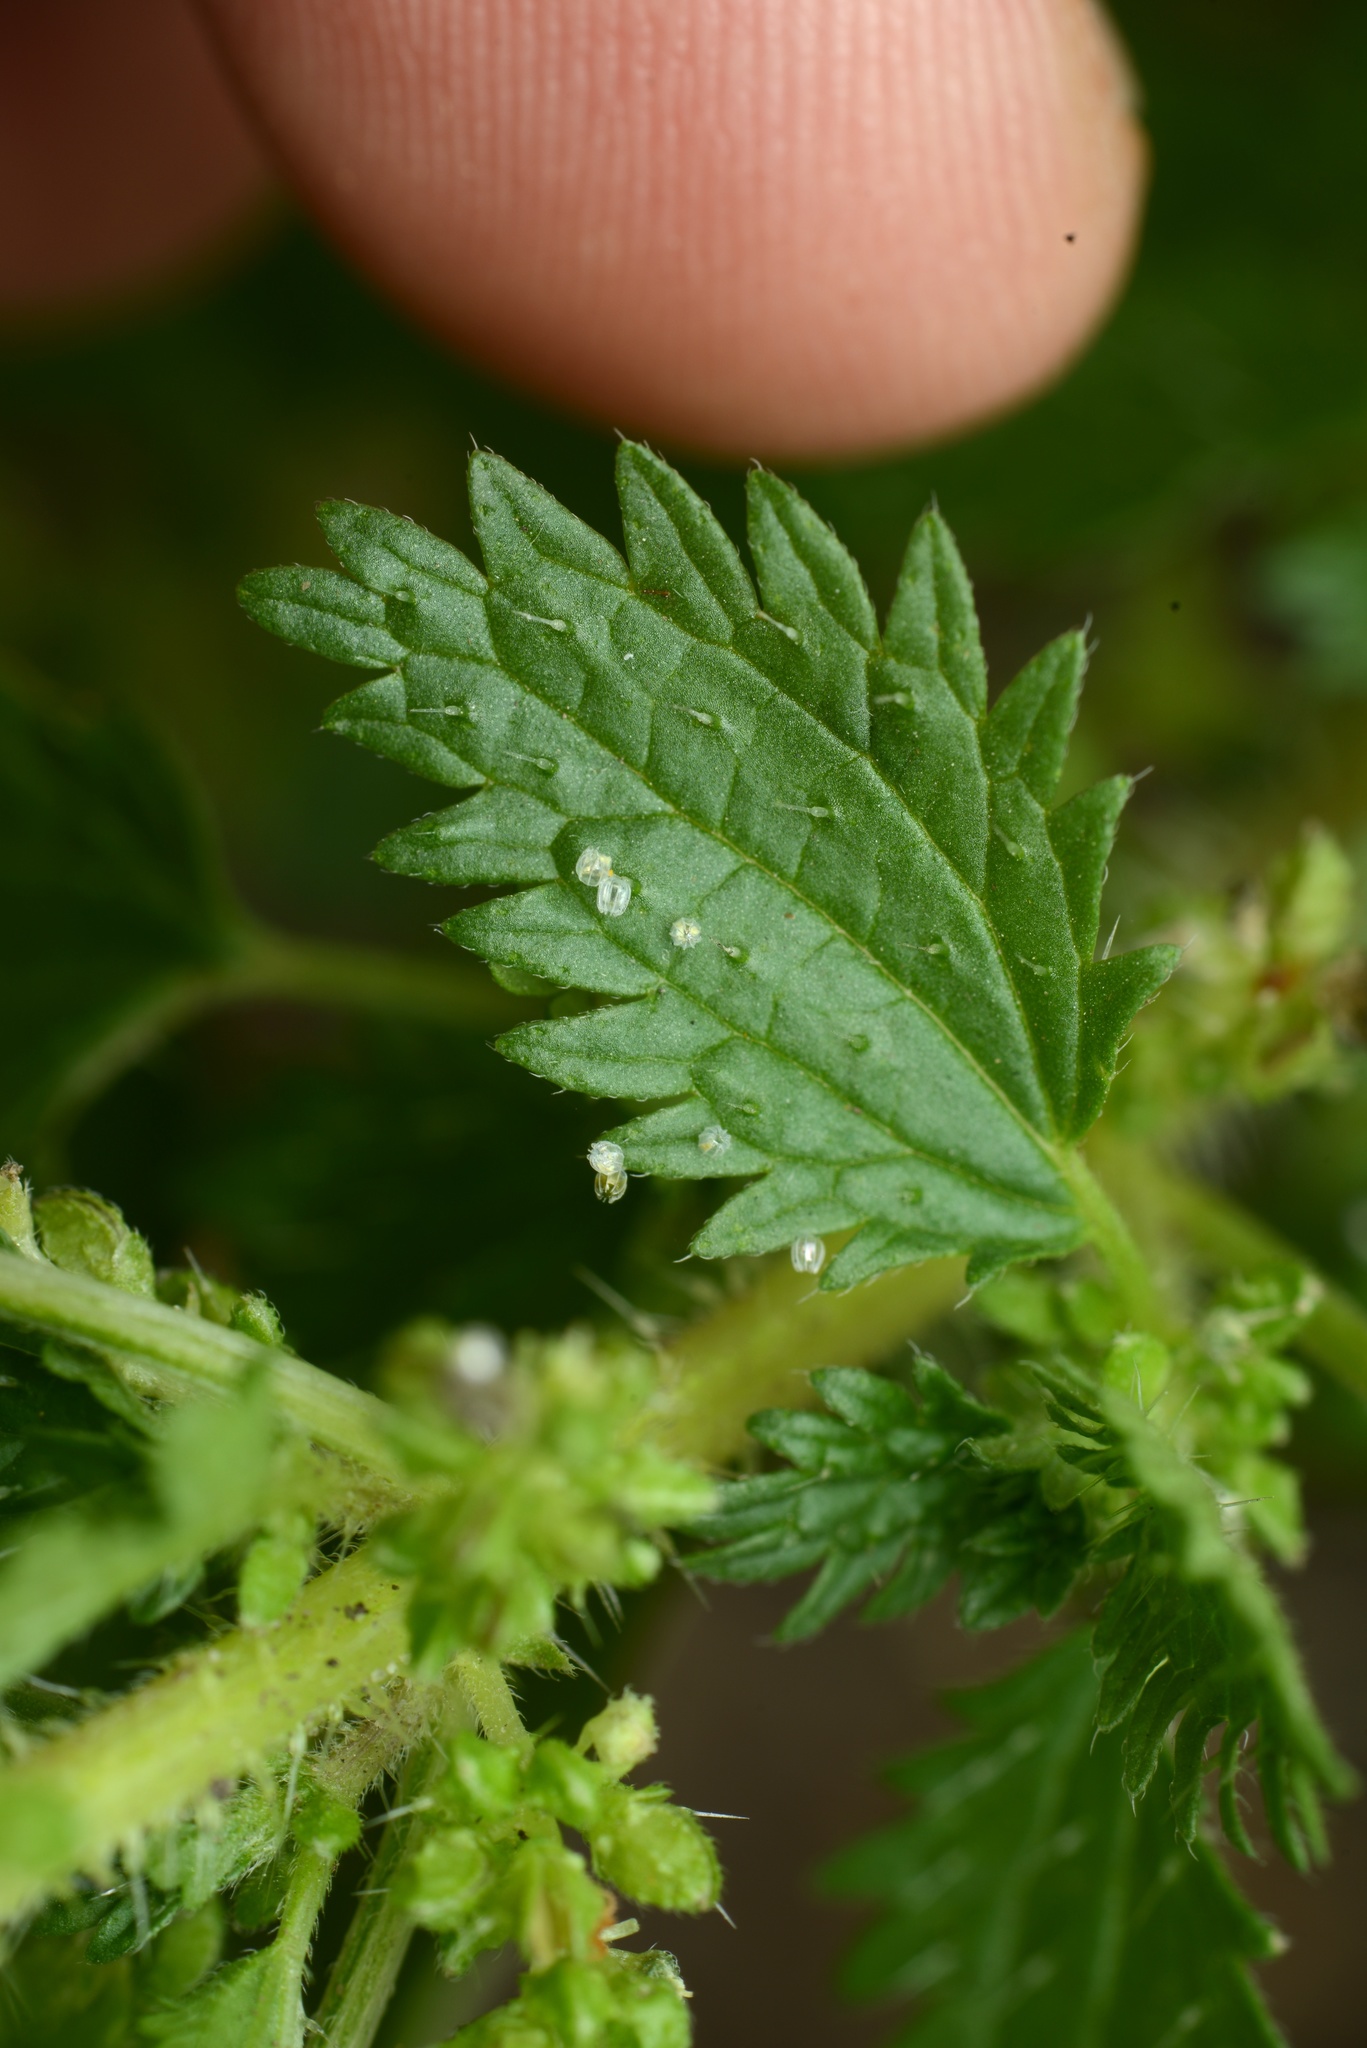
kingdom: Animalia
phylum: Arthropoda
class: Insecta
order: Lepidoptera
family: Nymphalidae
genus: Vanessa
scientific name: Vanessa itea
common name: Yellow admiral
